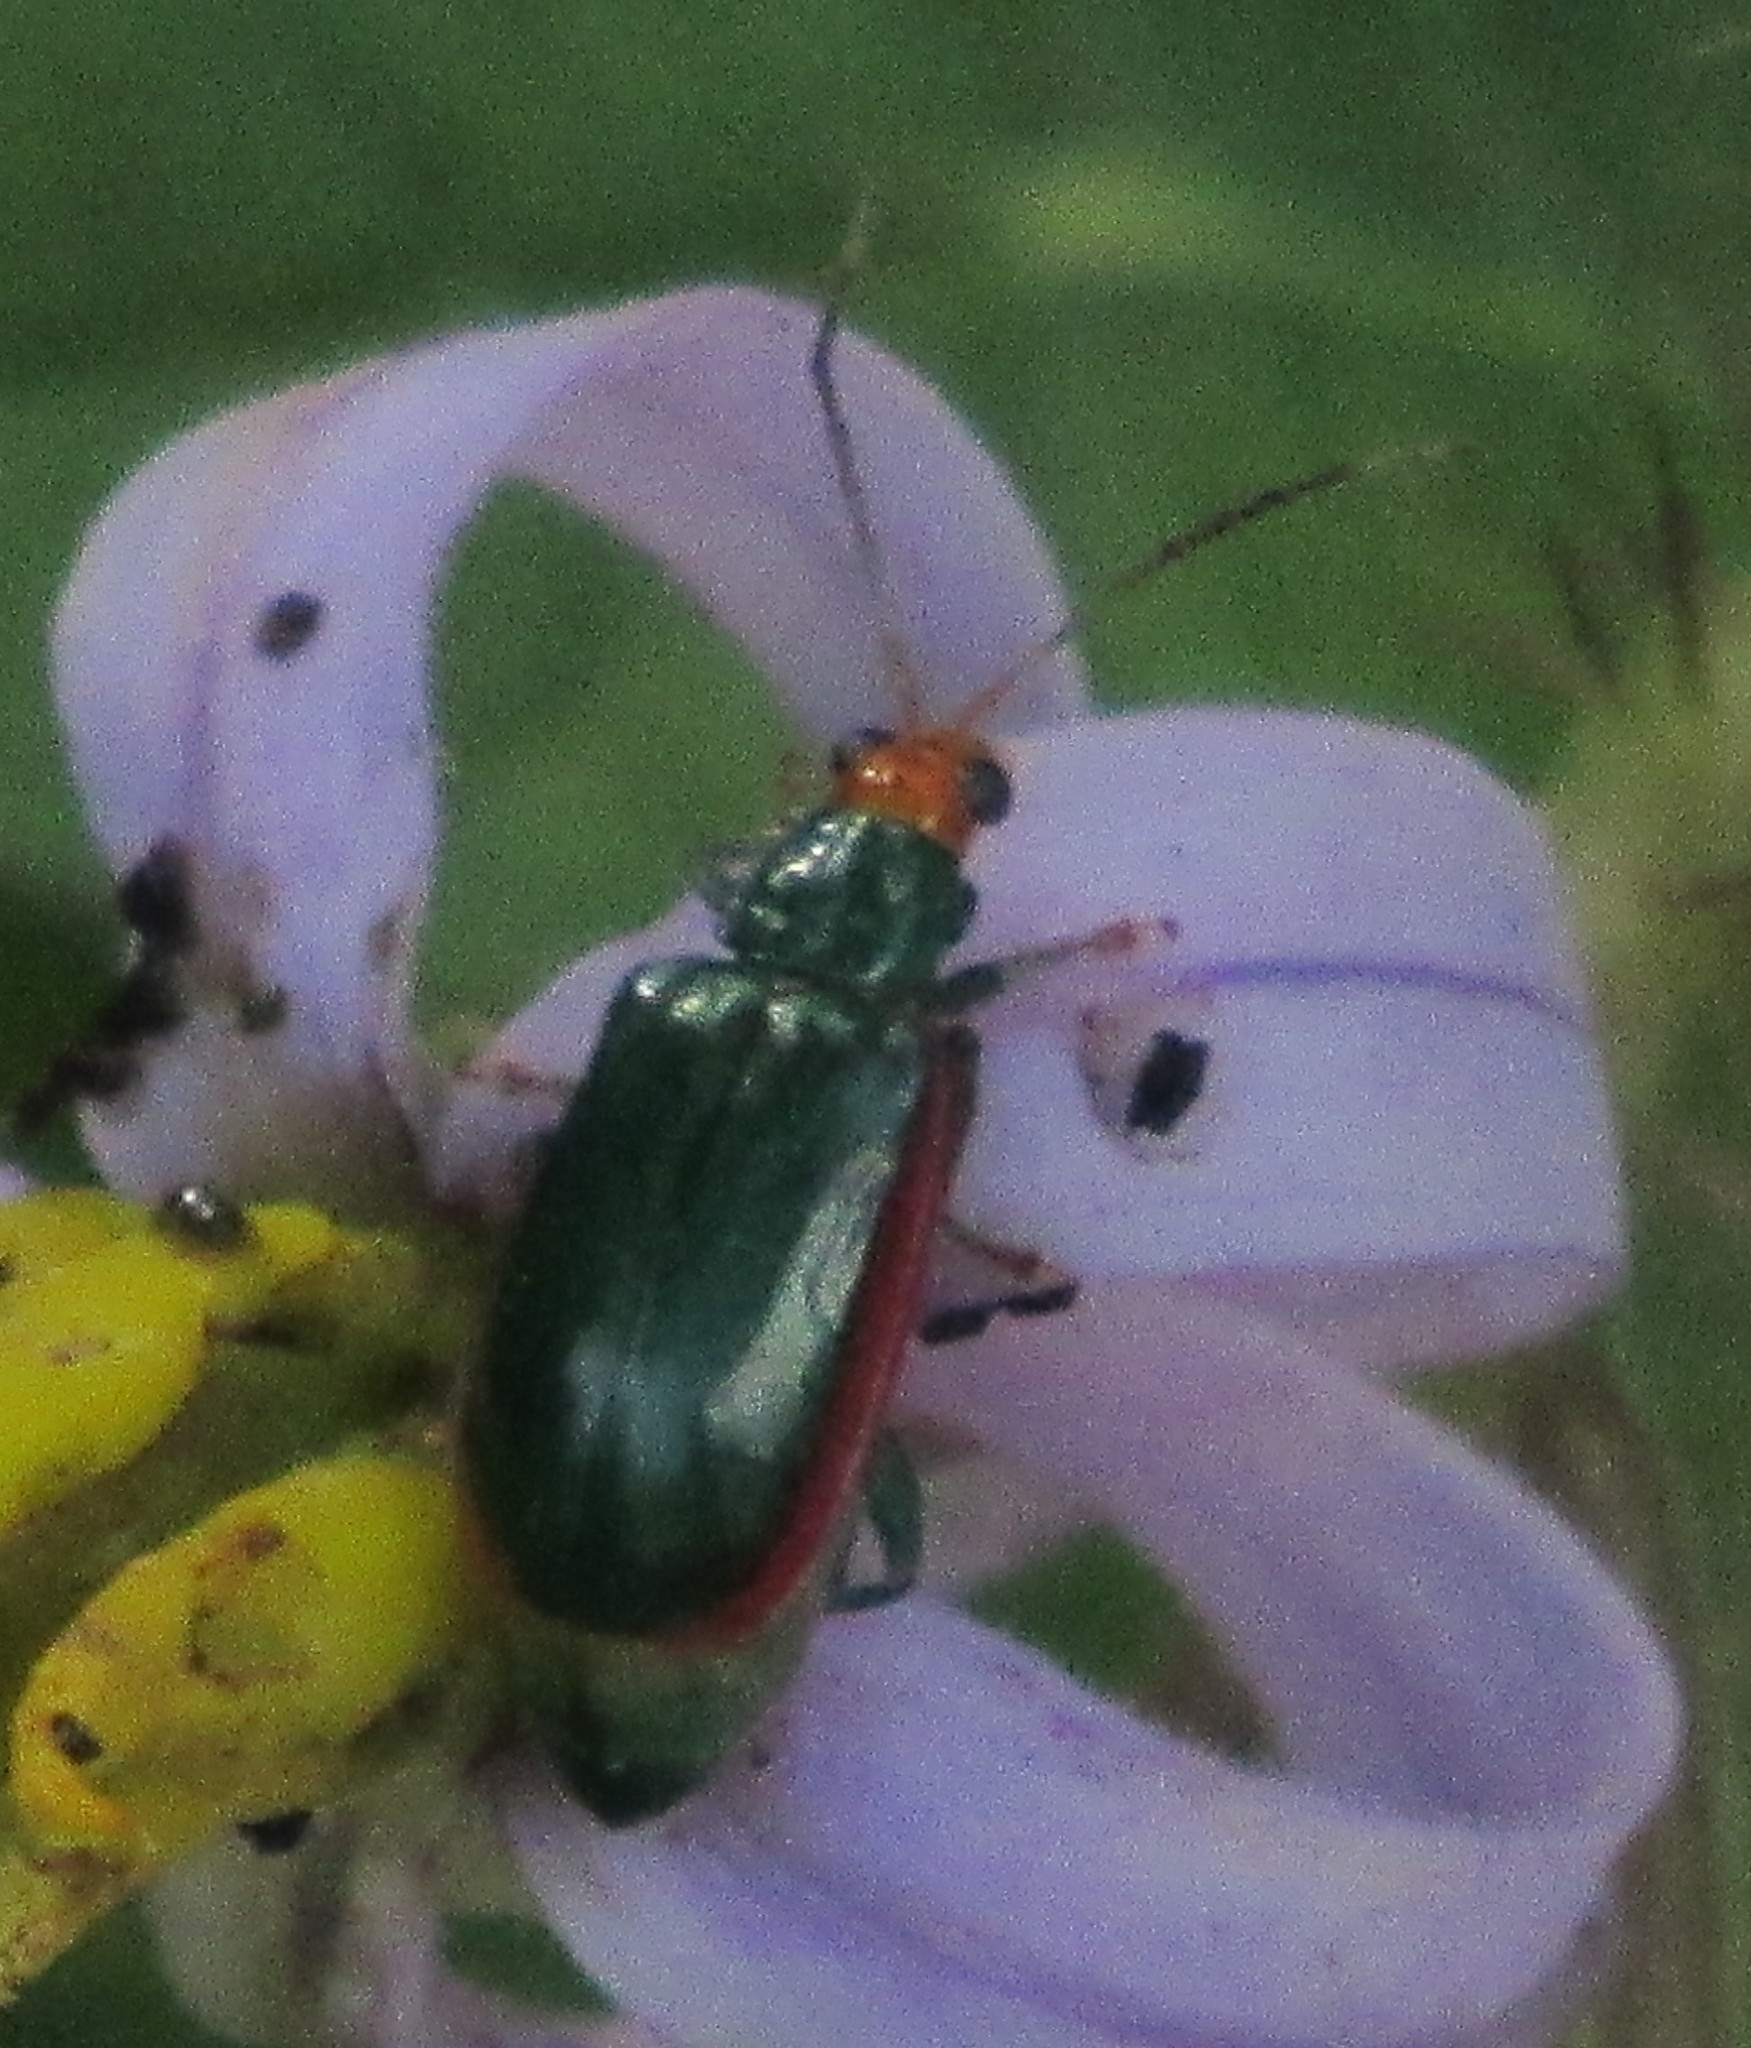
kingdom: Animalia
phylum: Arthropoda
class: Insecta
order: Coleoptera
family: Chrysomelidae
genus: Diabrotica
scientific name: Diabrotica
